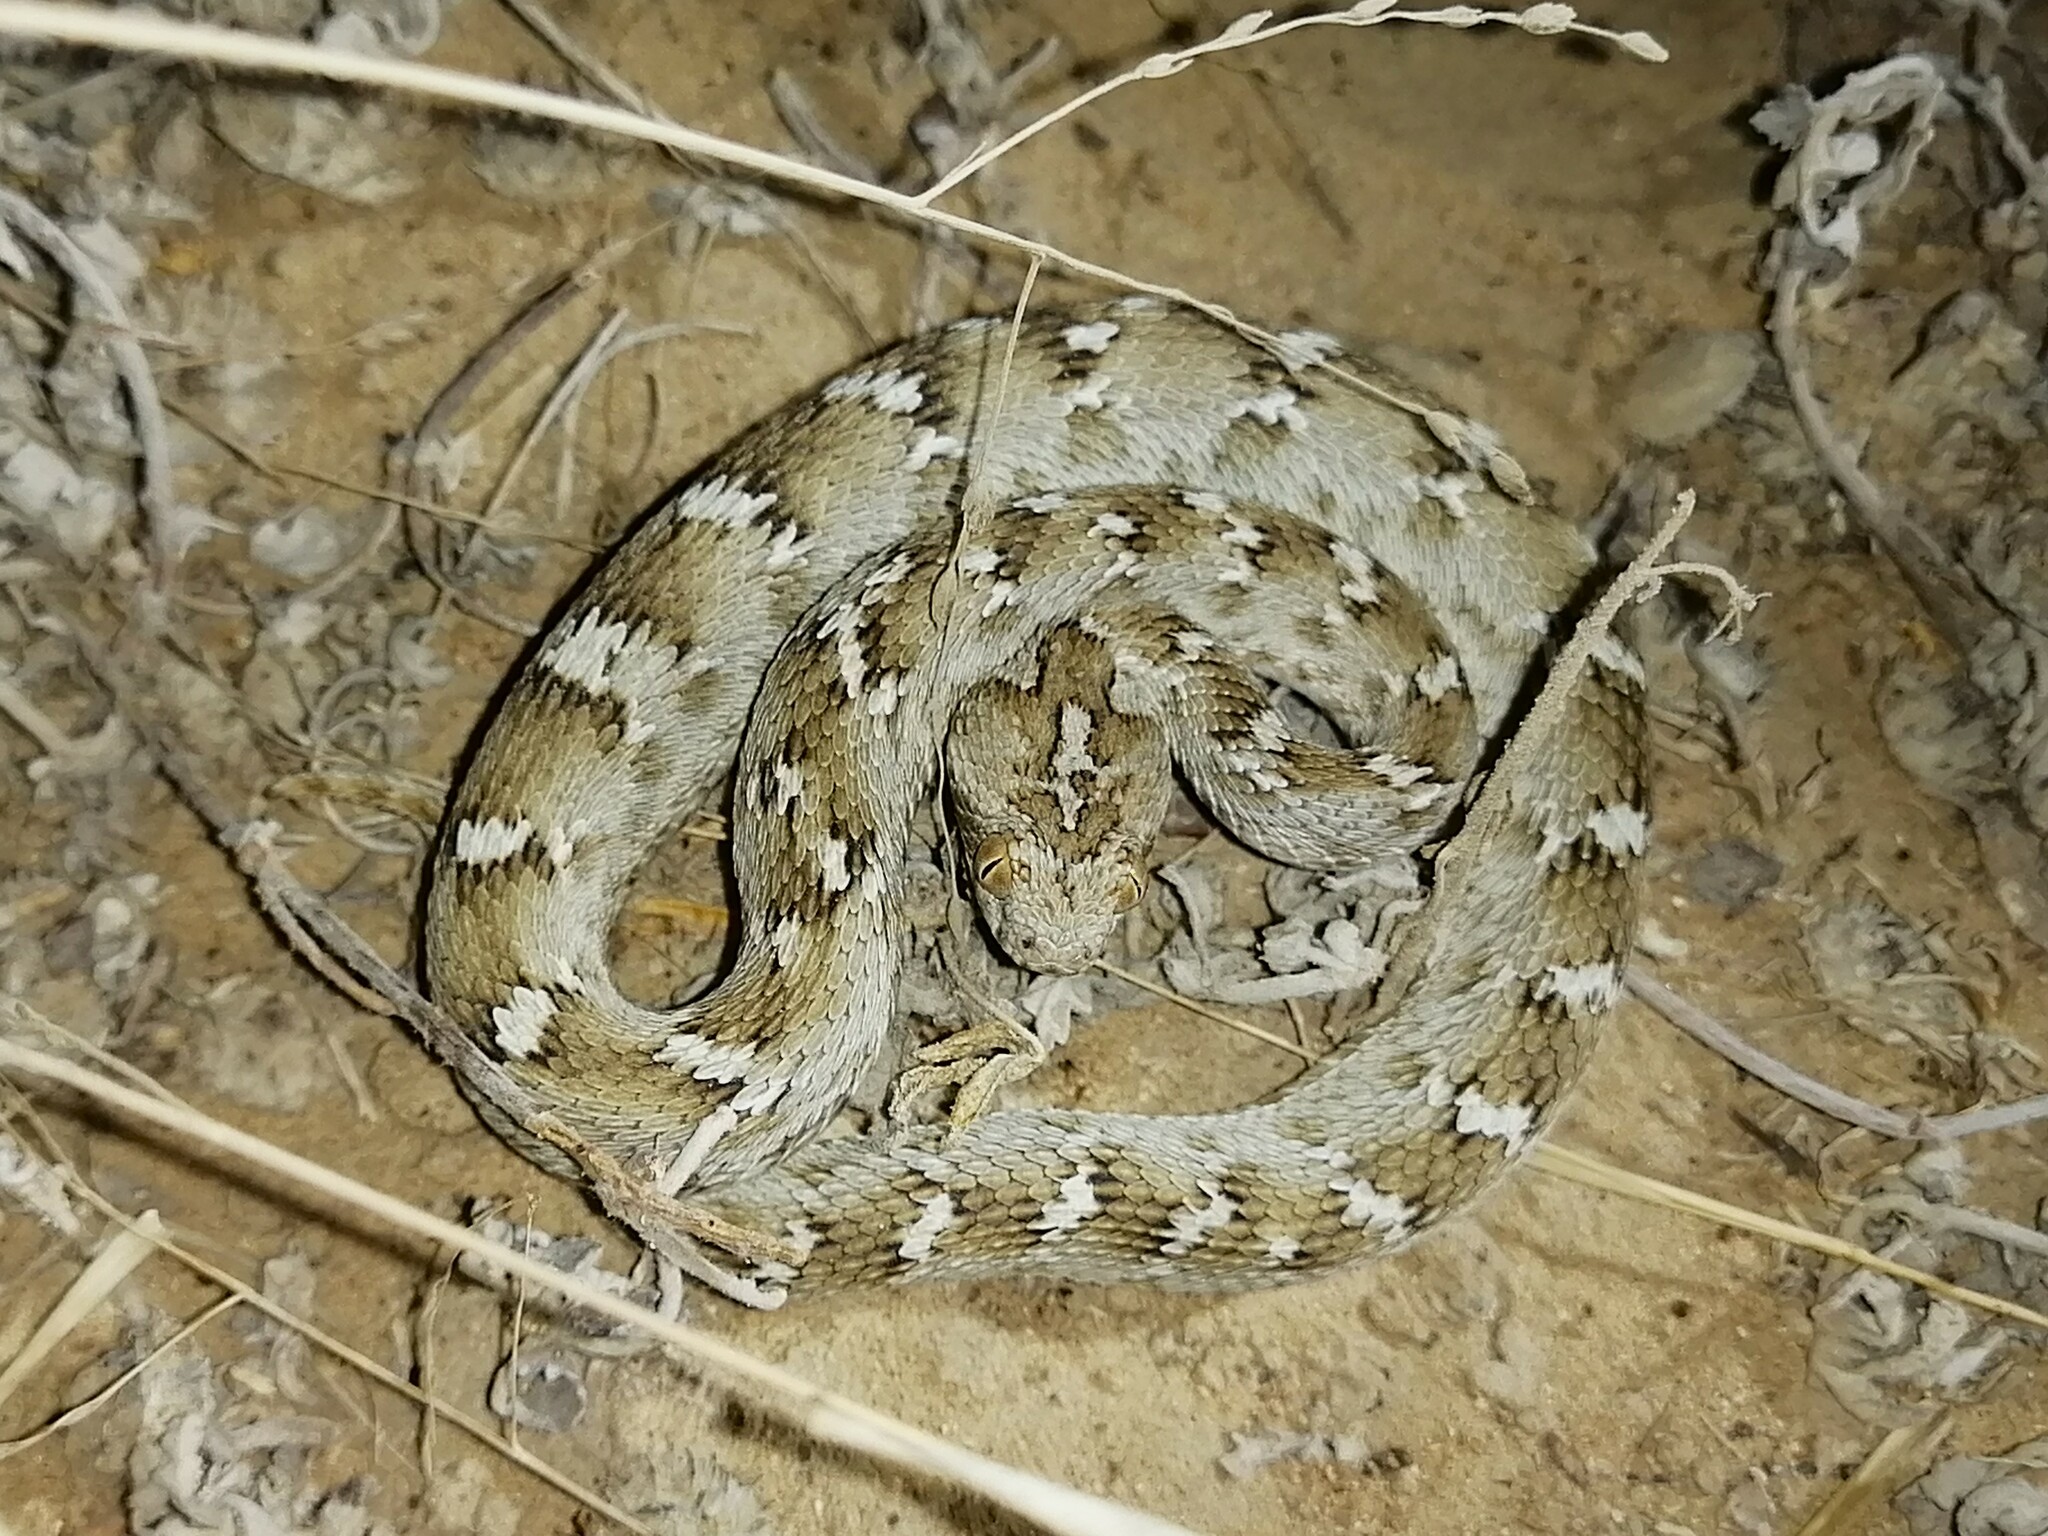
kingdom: Animalia
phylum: Chordata
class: Squamata
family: Viperidae
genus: Echis
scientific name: Echis carinatus
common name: Saw-scaled viper
